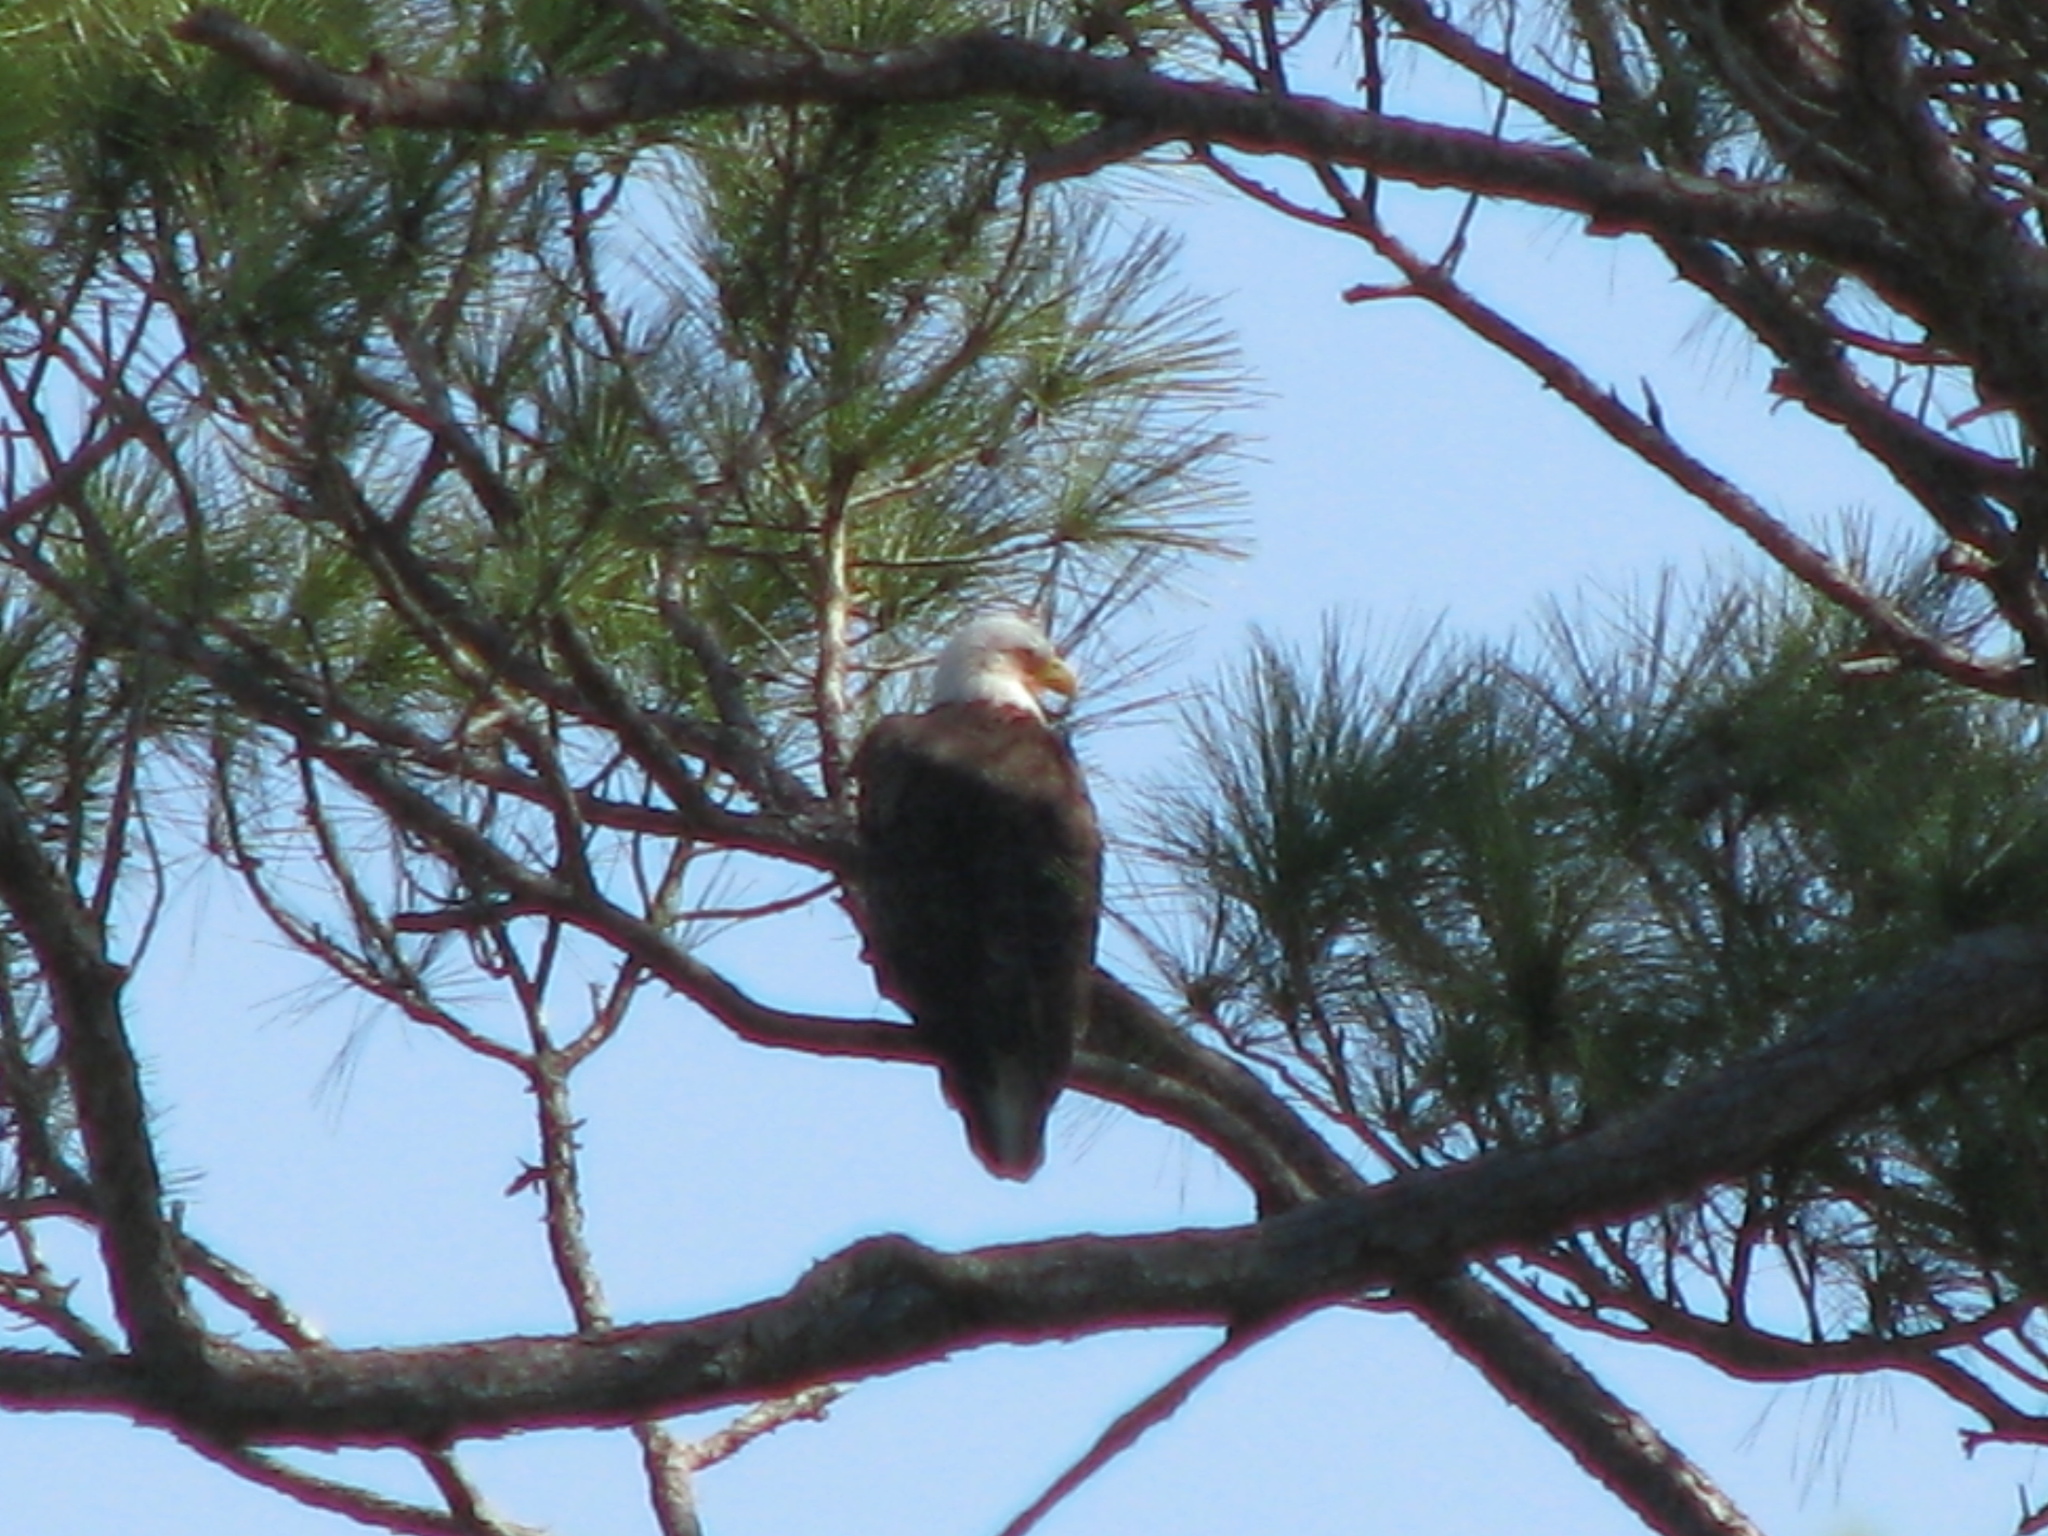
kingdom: Animalia
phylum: Chordata
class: Aves
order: Accipitriformes
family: Accipitridae
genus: Haliaeetus
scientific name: Haliaeetus leucocephalus
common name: Bald eagle
